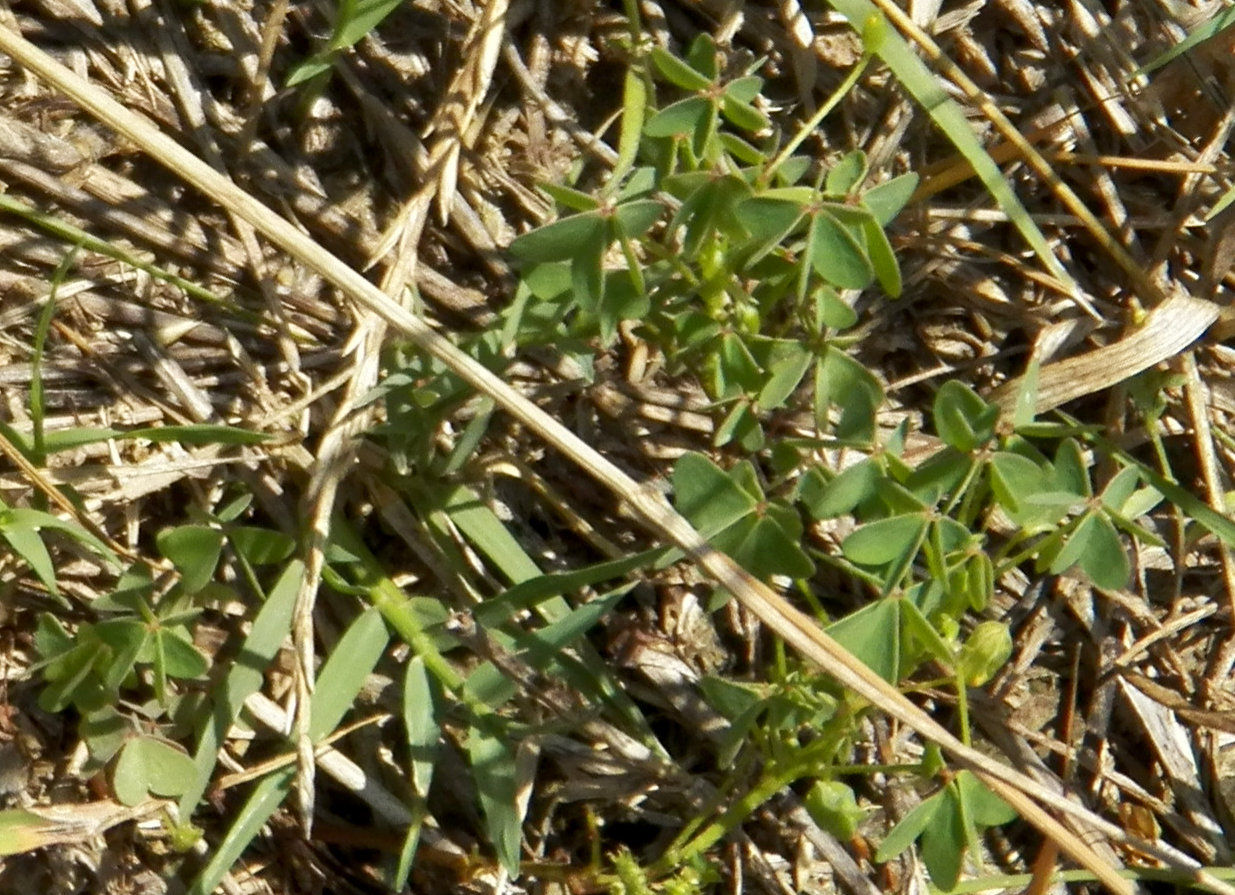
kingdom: Plantae
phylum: Tracheophyta
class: Magnoliopsida
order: Oxalidales
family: Oxalidaceae
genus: Oxalis
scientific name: Oxalis dillenii
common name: Sussex yellow-sorrel
